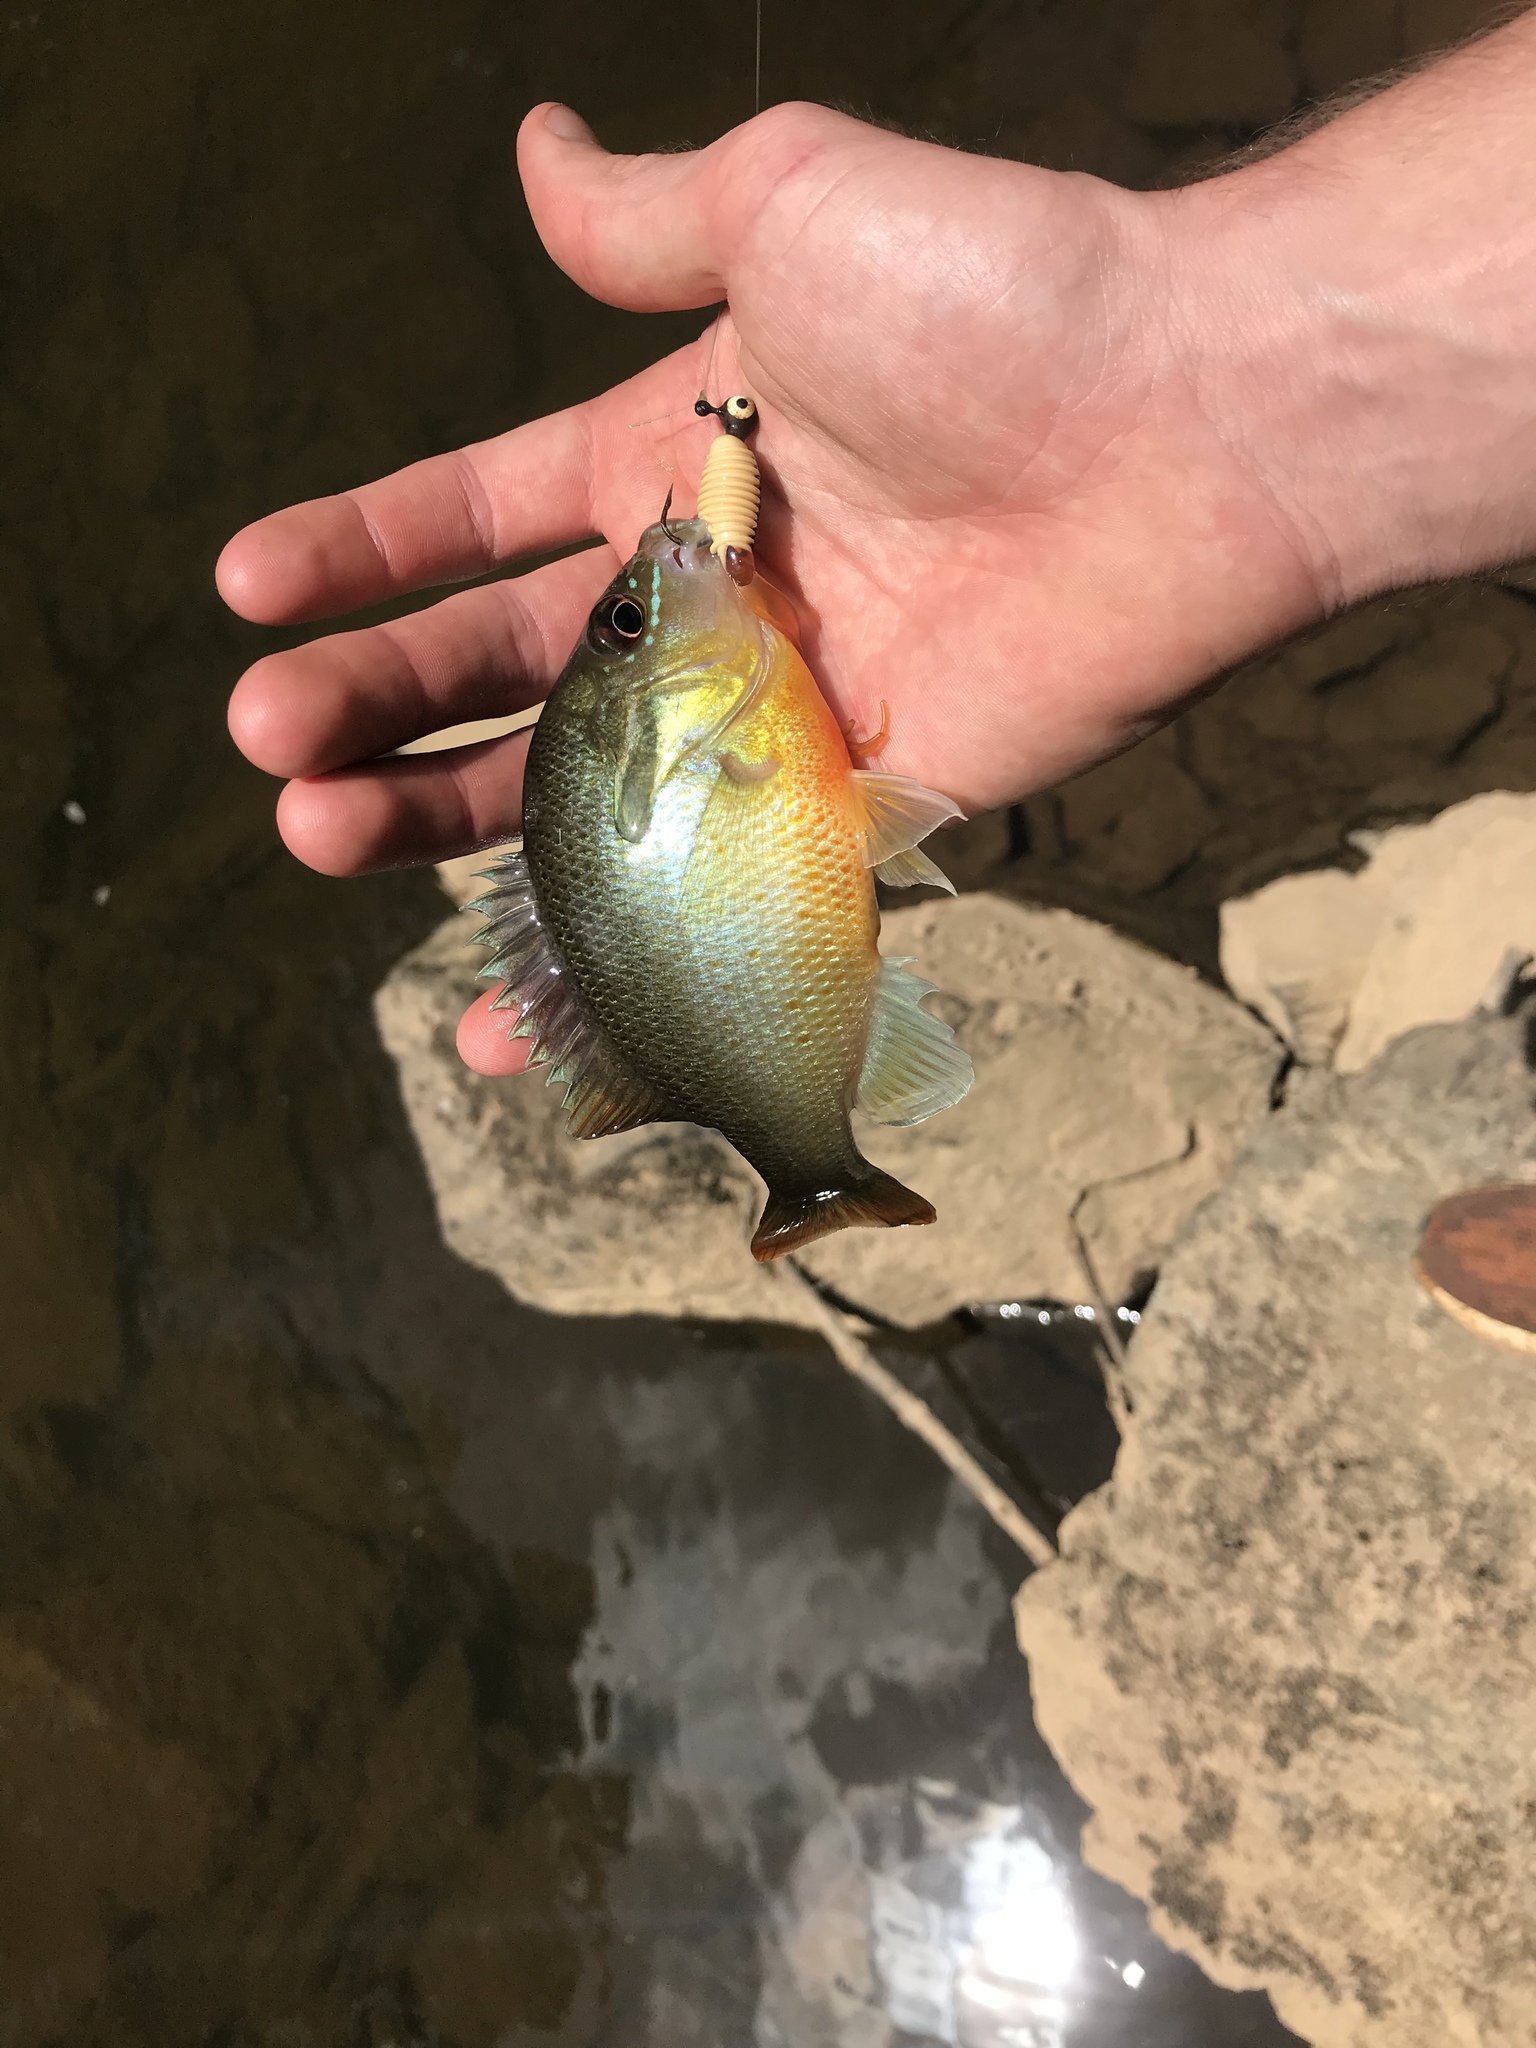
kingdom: Animalia
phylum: Chordata
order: Perciformes
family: Centrarchidae
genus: Lepomis
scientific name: Lepomis auritus
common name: Redbreast sunfish
